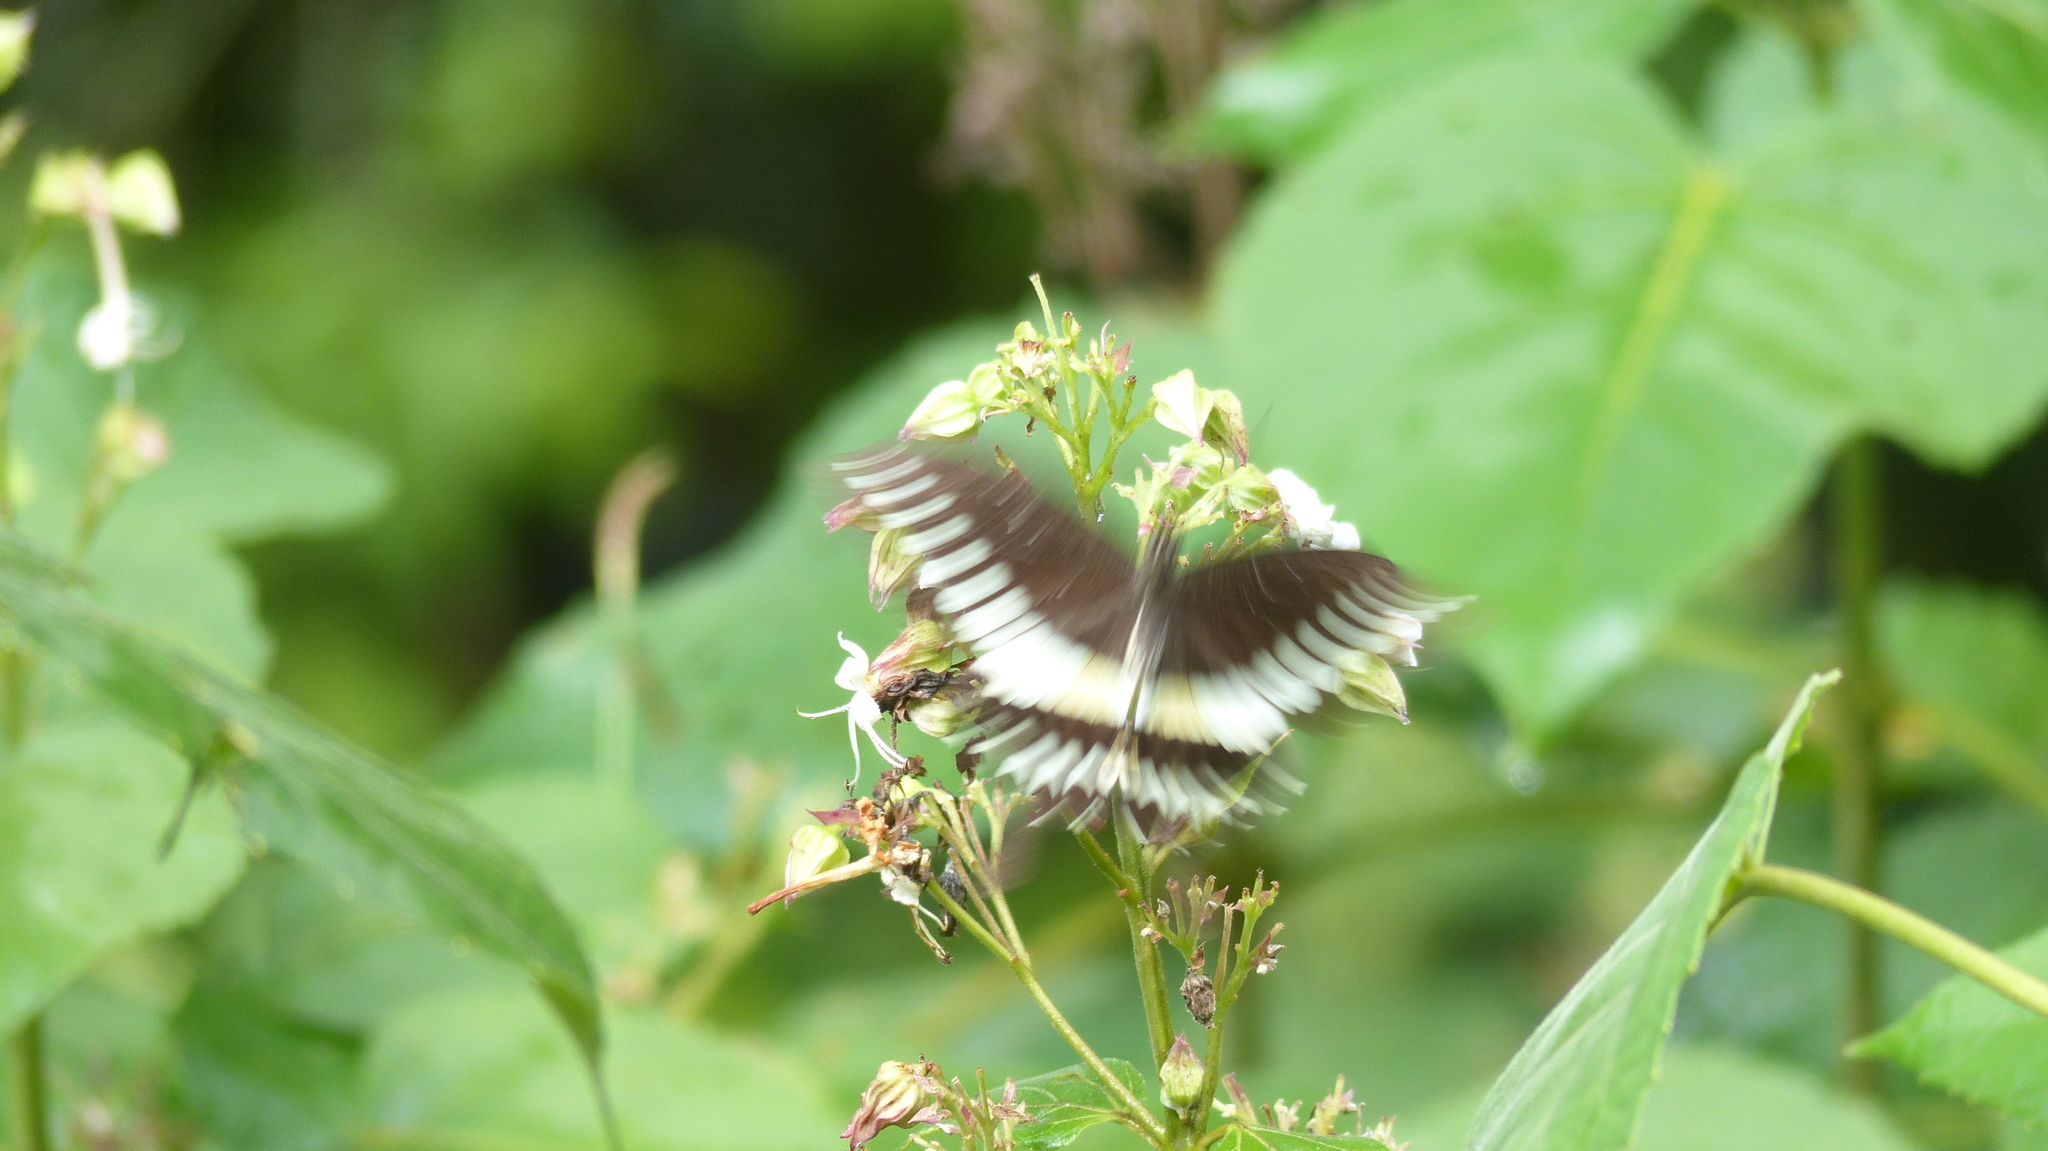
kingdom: Animalia
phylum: Arthropoda
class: Insecta
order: Lepidoptera
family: Papilionidae
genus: Papilio
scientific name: Papilio liomedon
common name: Malabar banded swallowtail
